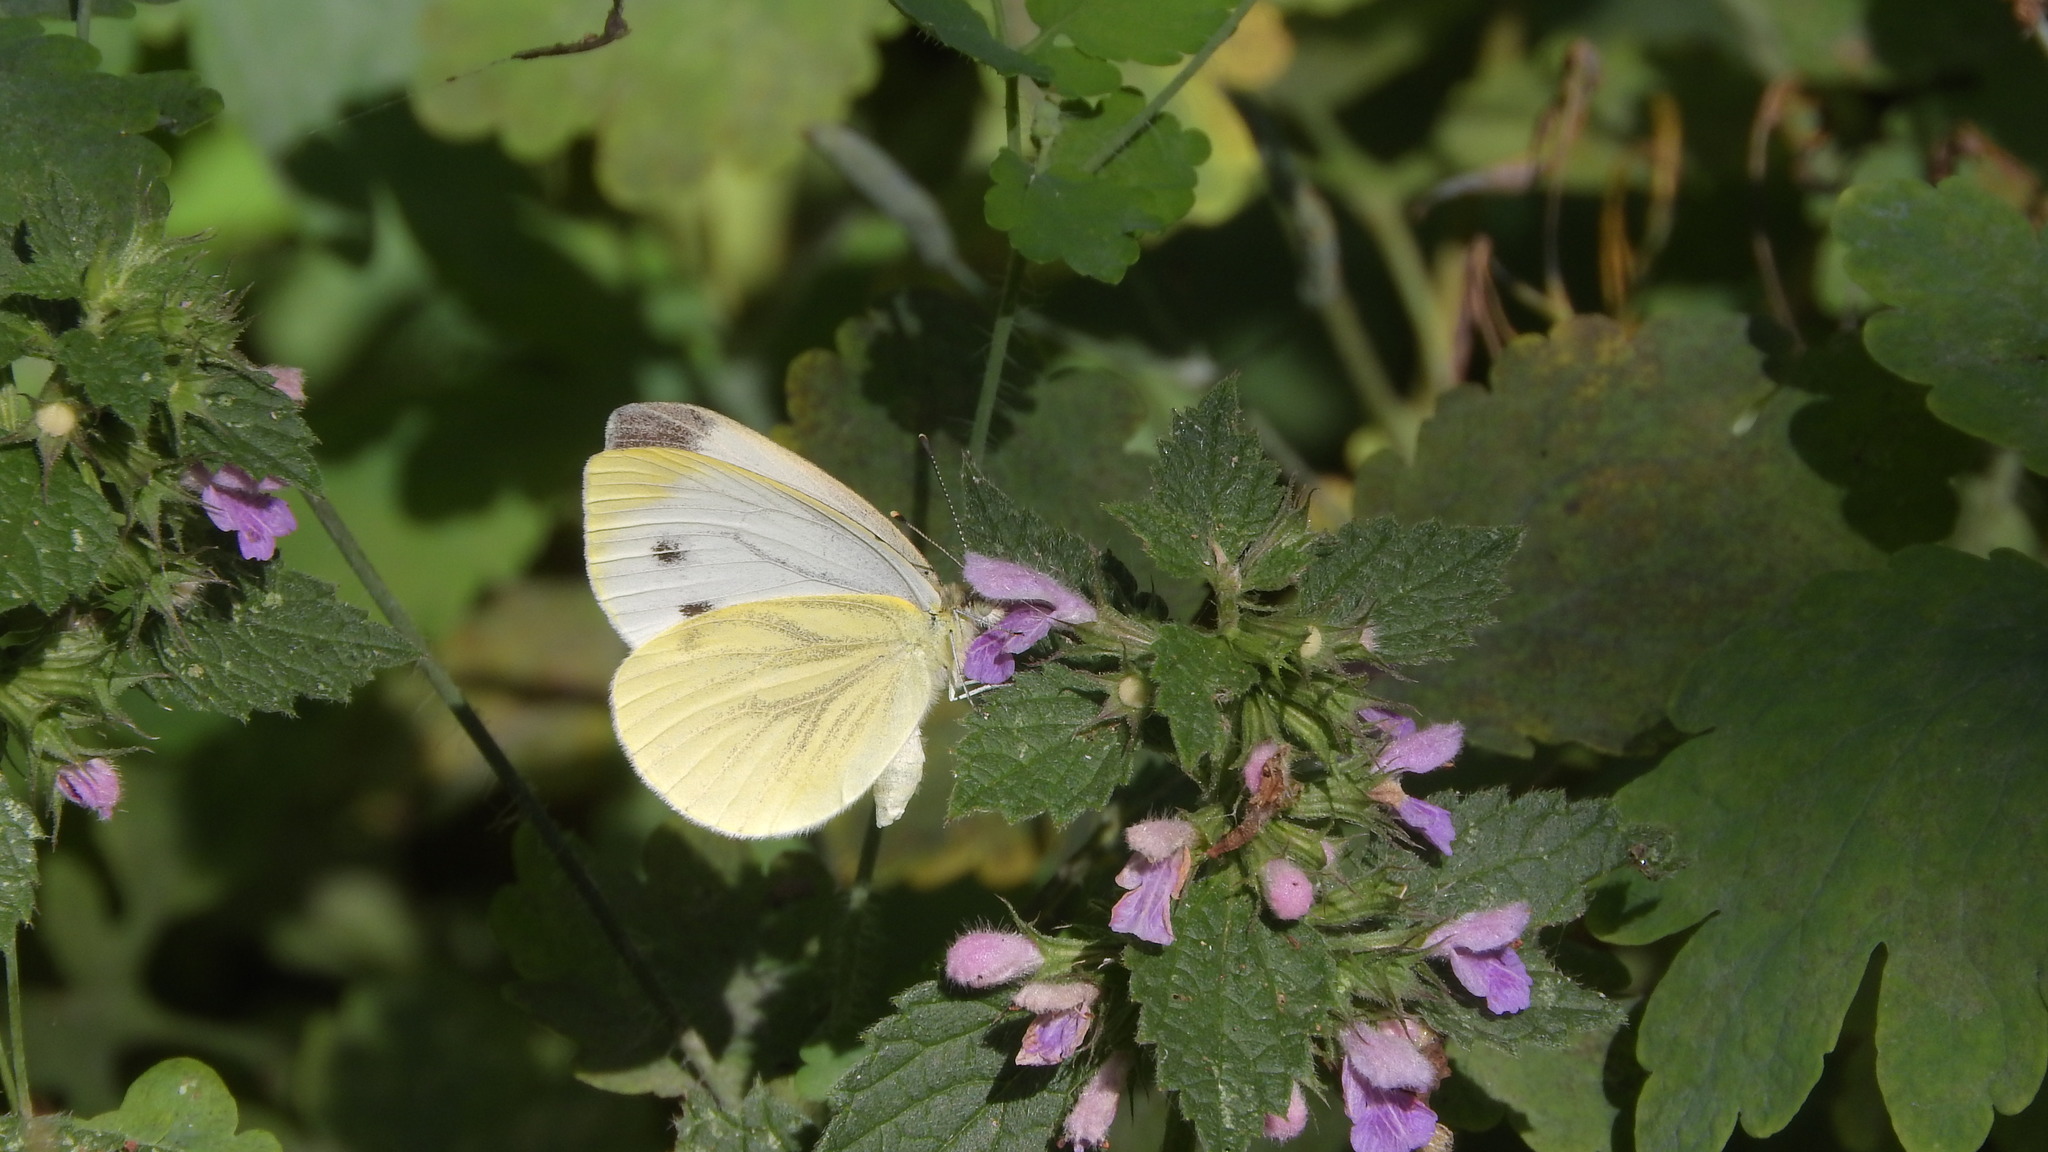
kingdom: Animalia
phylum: Arthropoda
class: Insecta
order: Lepidoptera
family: Pieridae
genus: Pieris
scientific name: Pieris napi
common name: Green-veined white
